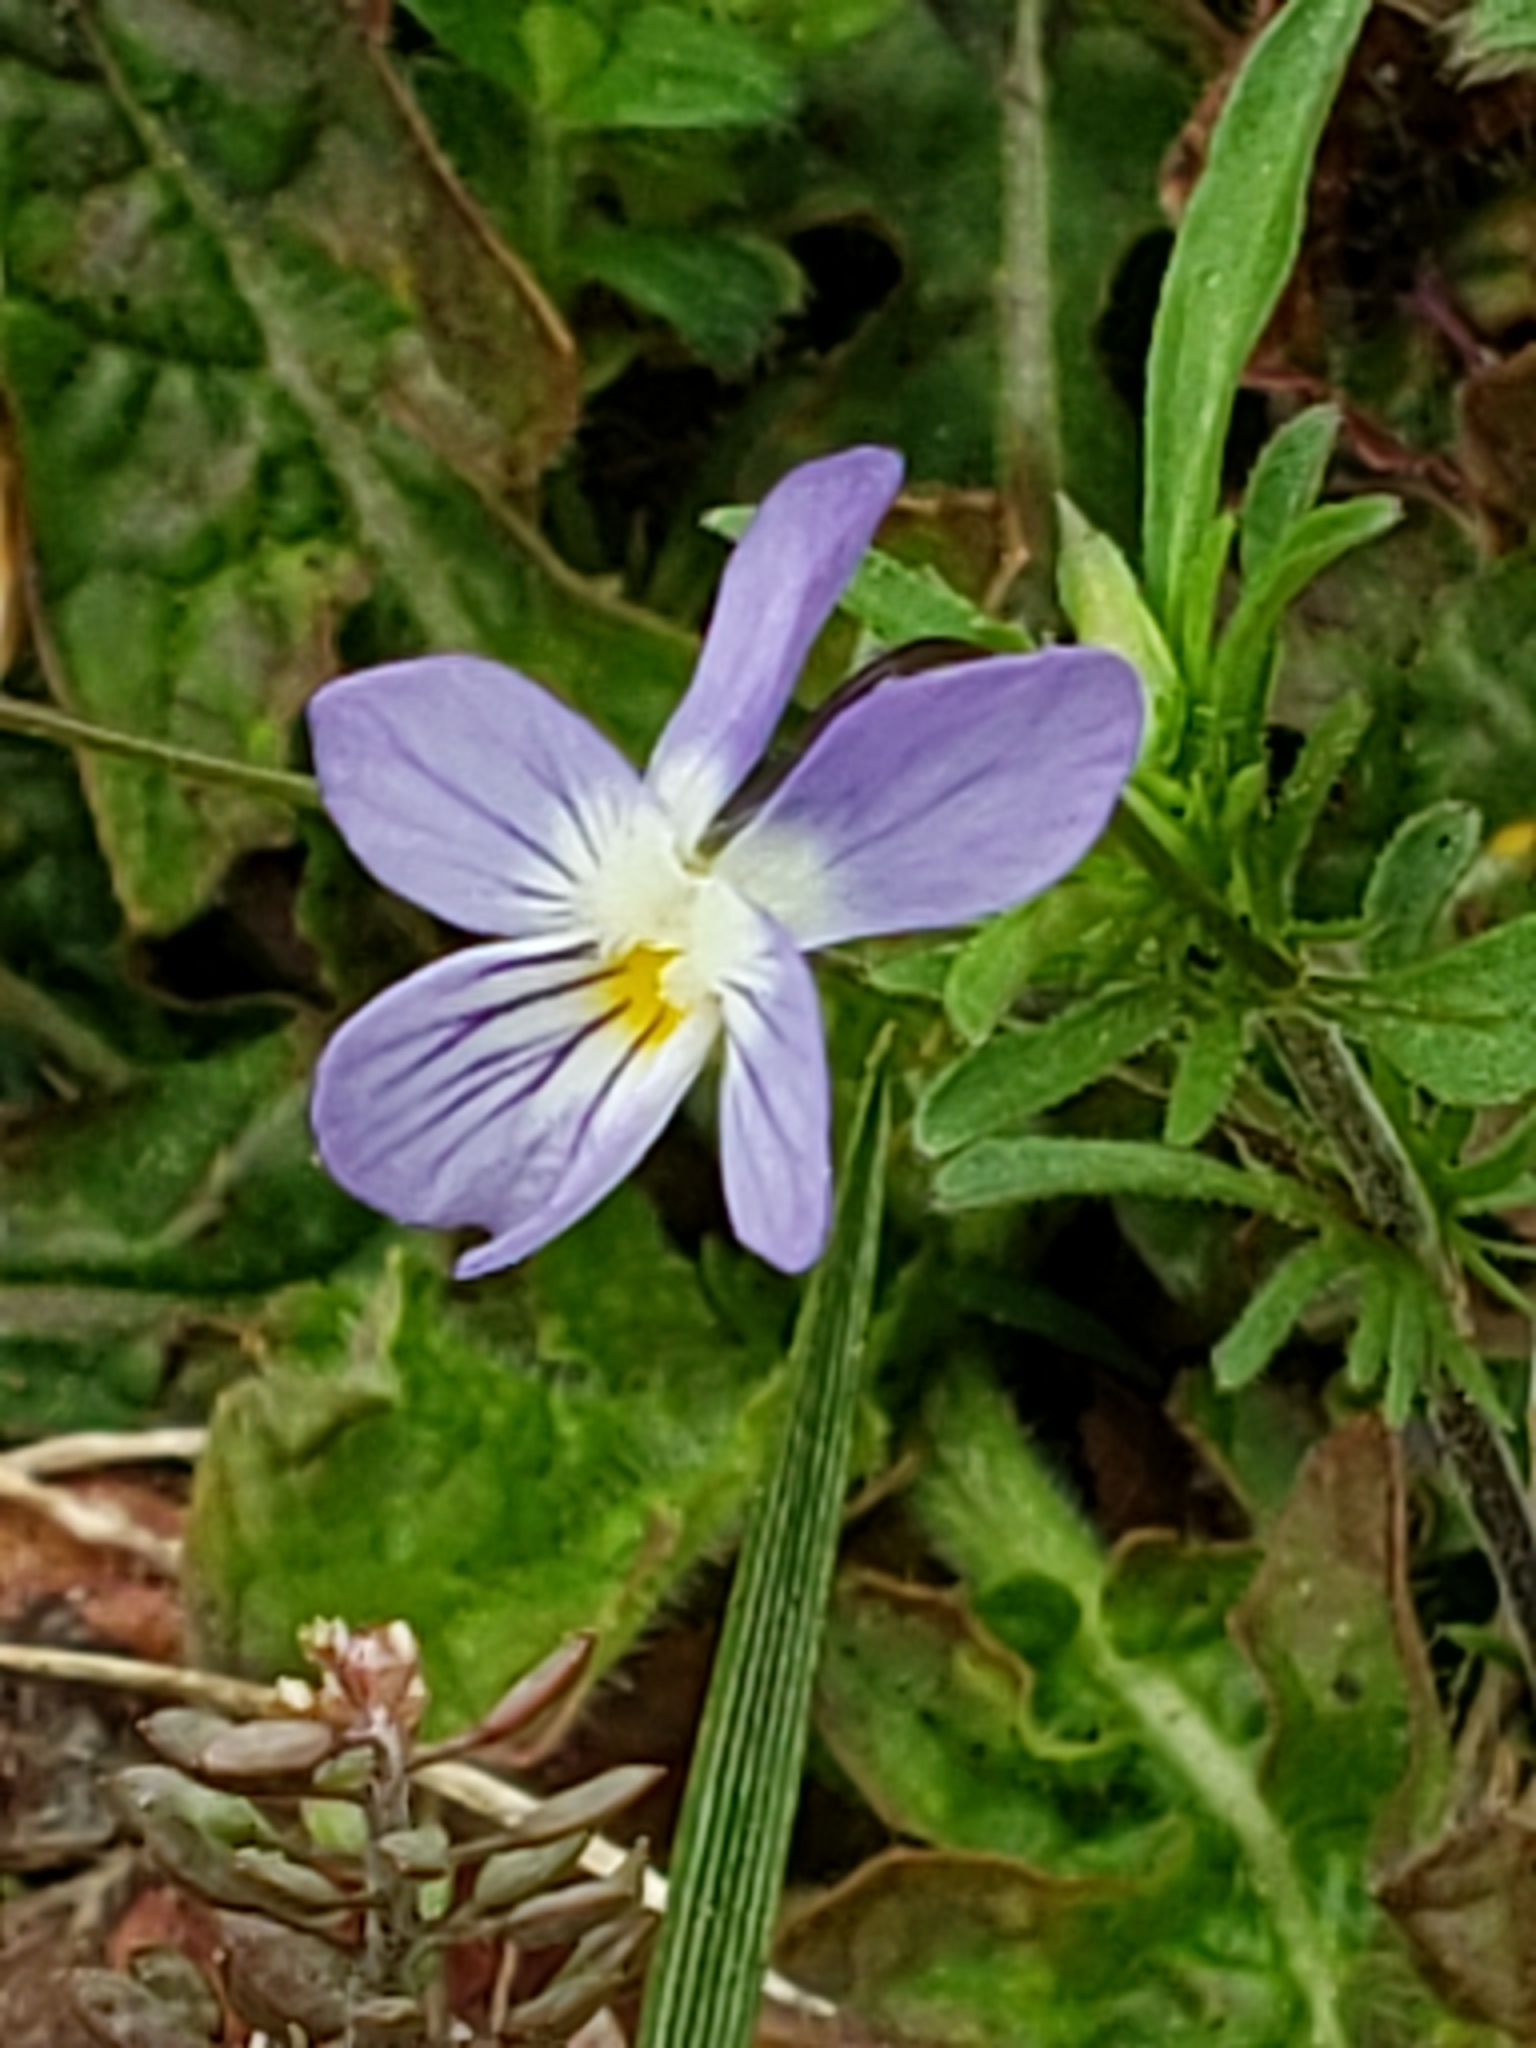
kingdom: Plantae
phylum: Tracheophyta
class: Magnoliopsida
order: Malpighiales
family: Violaceae
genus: Viola
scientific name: Viola rafinesquei
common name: American field pansy
